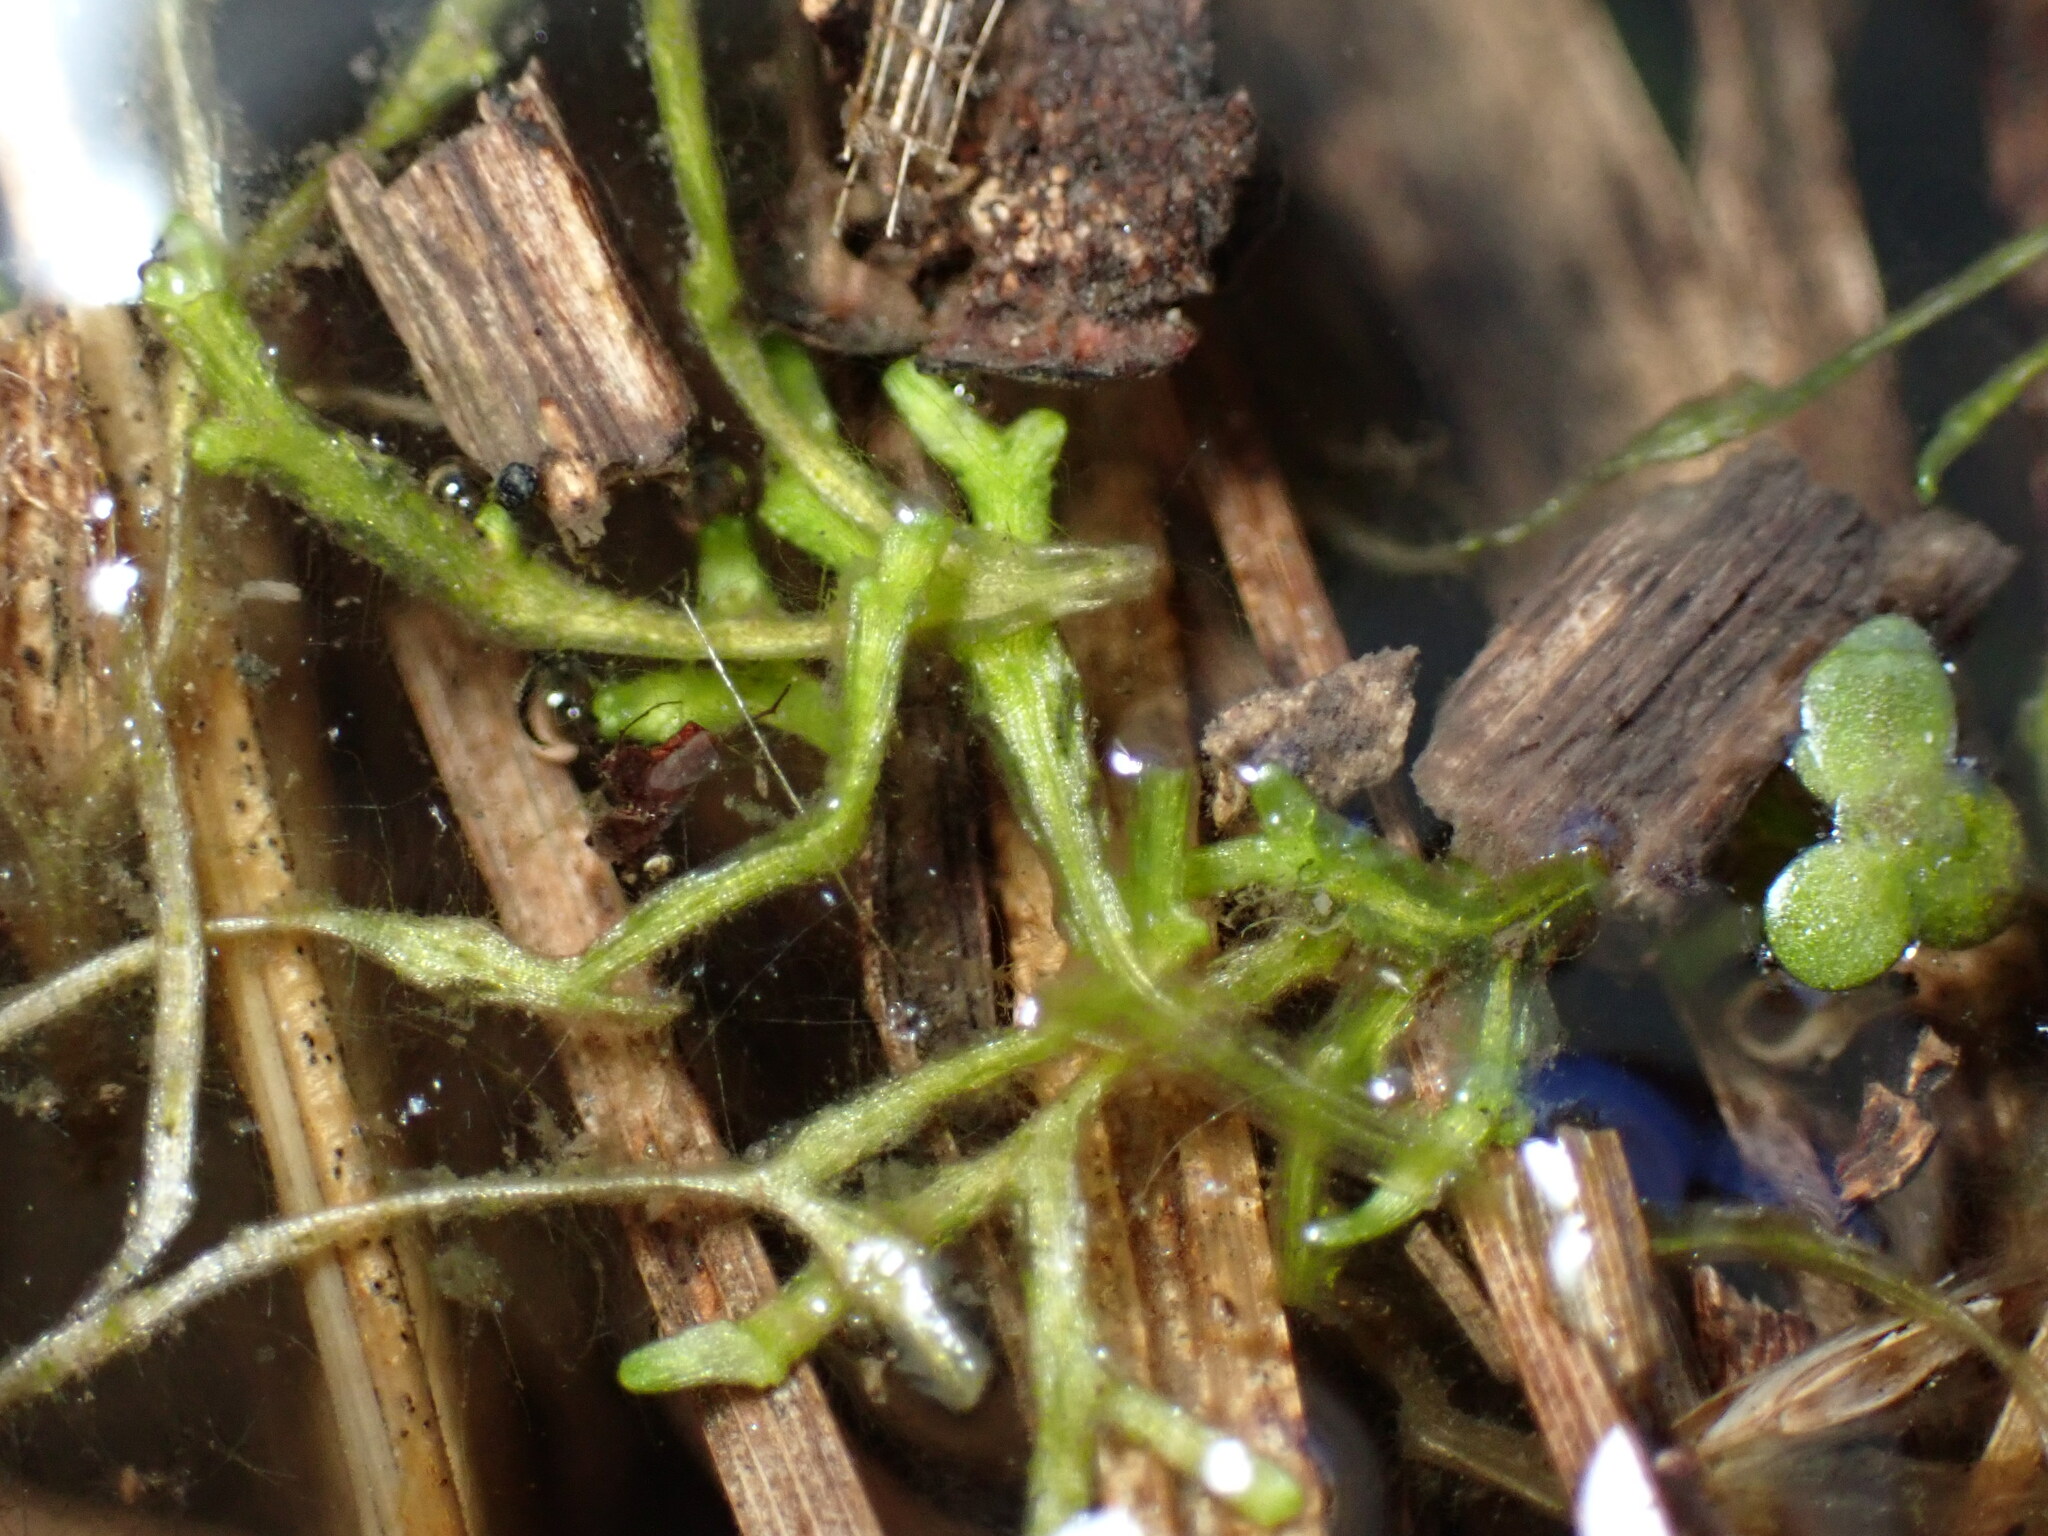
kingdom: Plantae
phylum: Marchantiophyta
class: Marchantiopsida
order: Marchantiales
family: Ricciaceae
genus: Riccia
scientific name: Riccia fluitans
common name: Floating crystalwort
